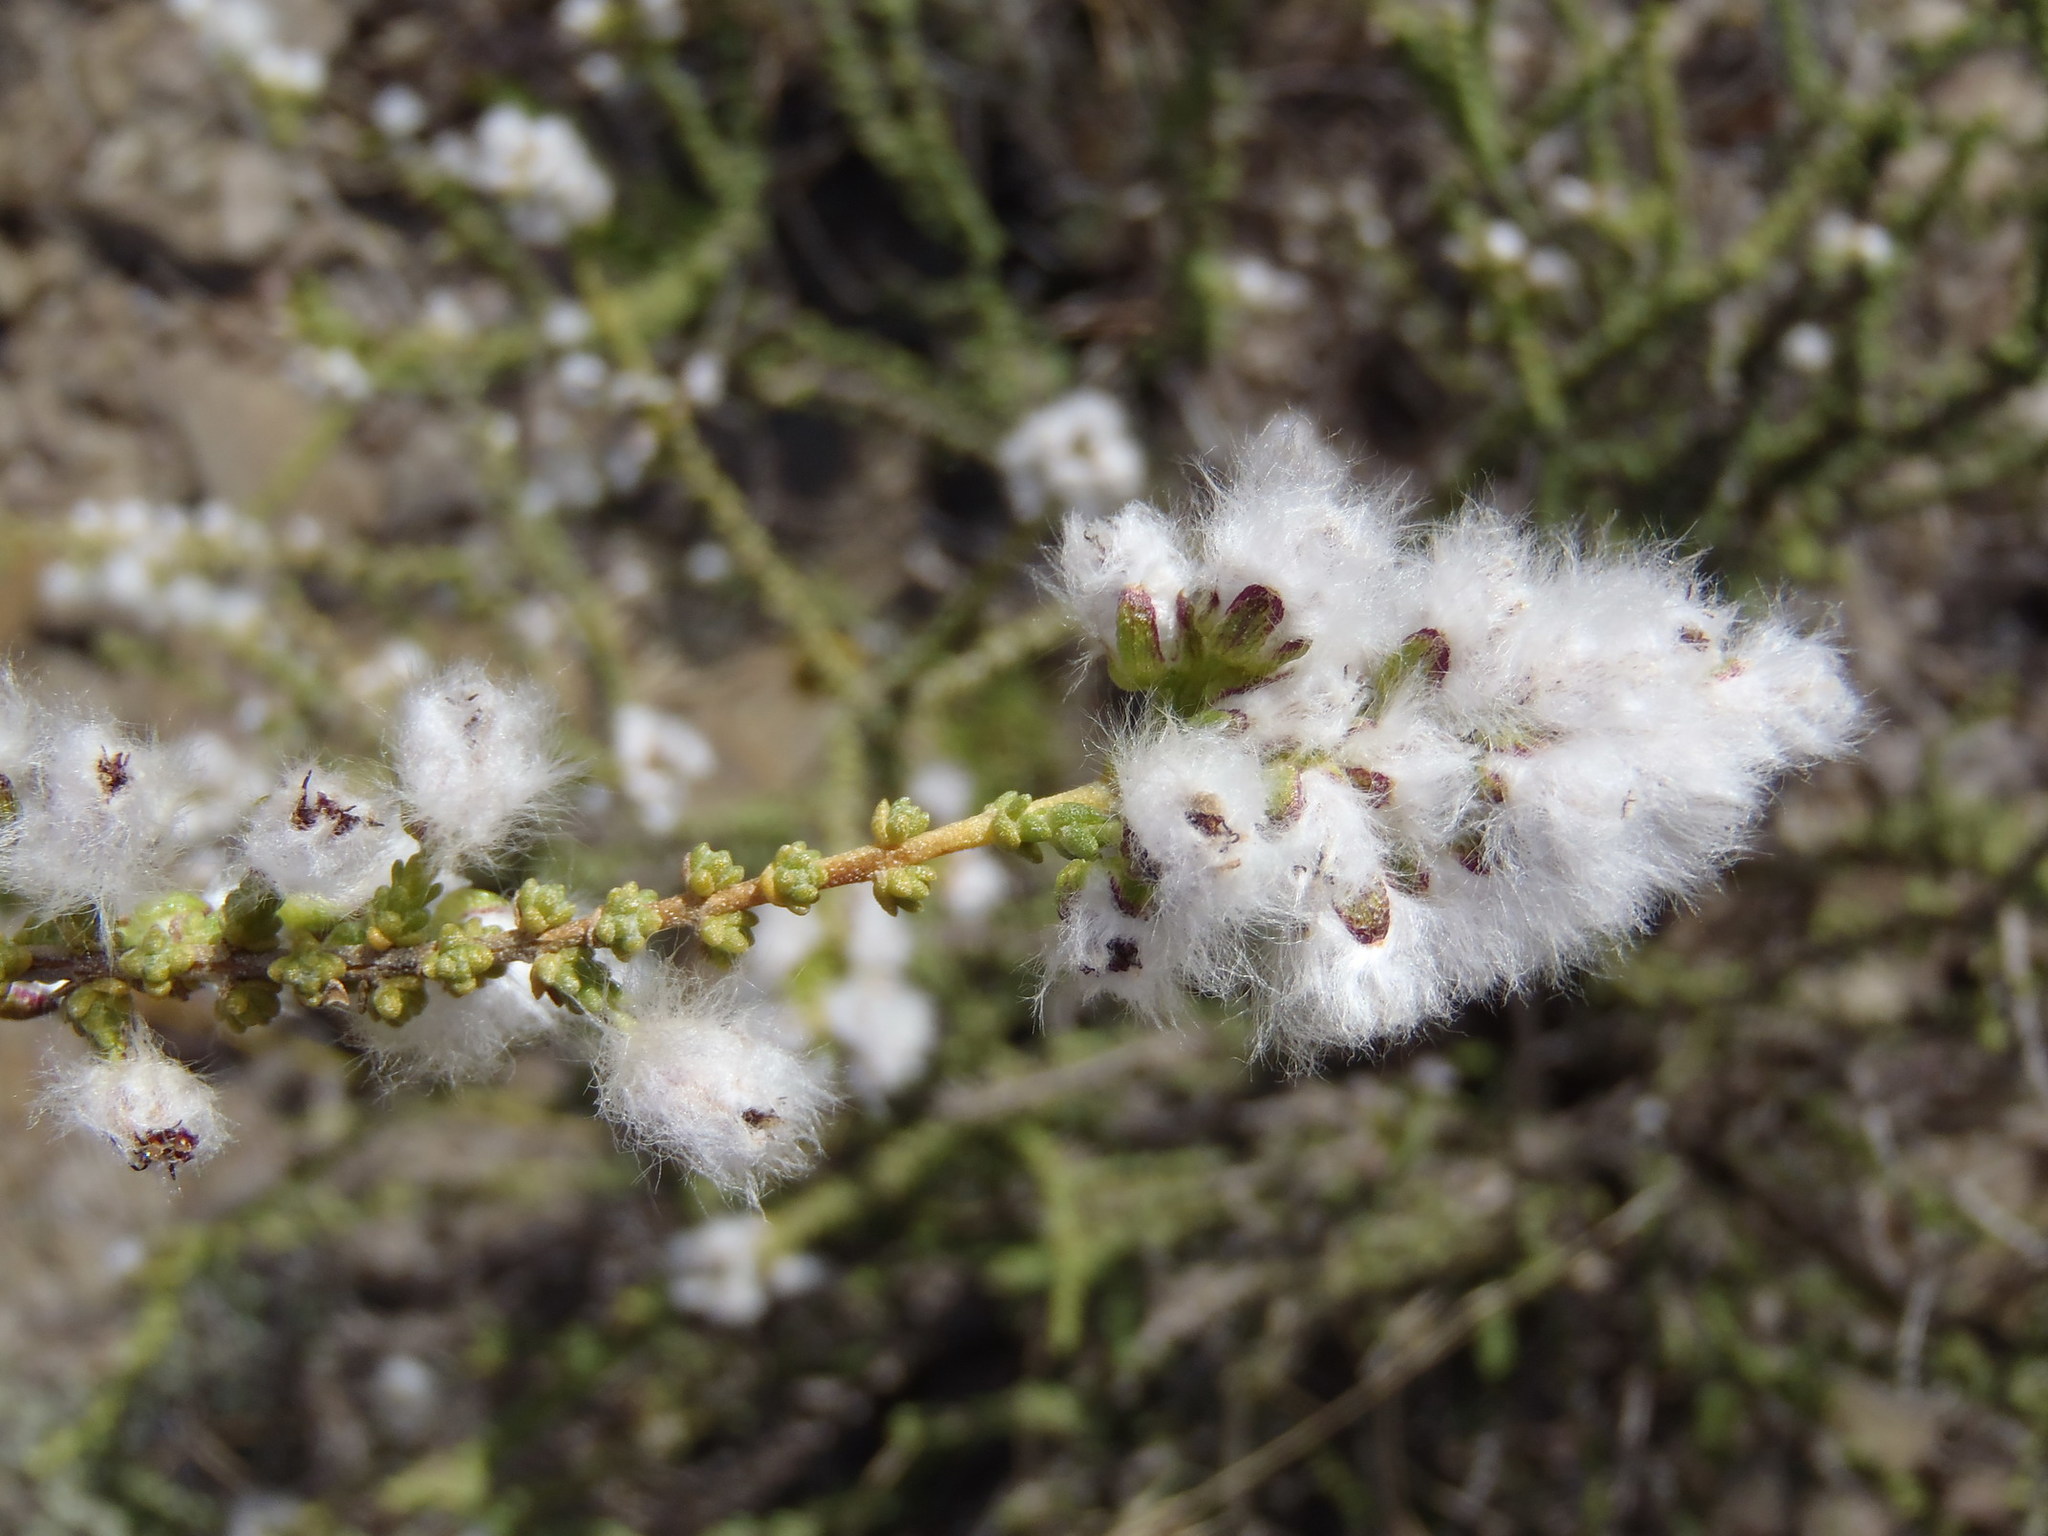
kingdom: Plantae
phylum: Tracheophyta
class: Magnoliopsida
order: Asterales
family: Asteraceae
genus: Eriocephalus
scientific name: Eriocephalus ericoides
